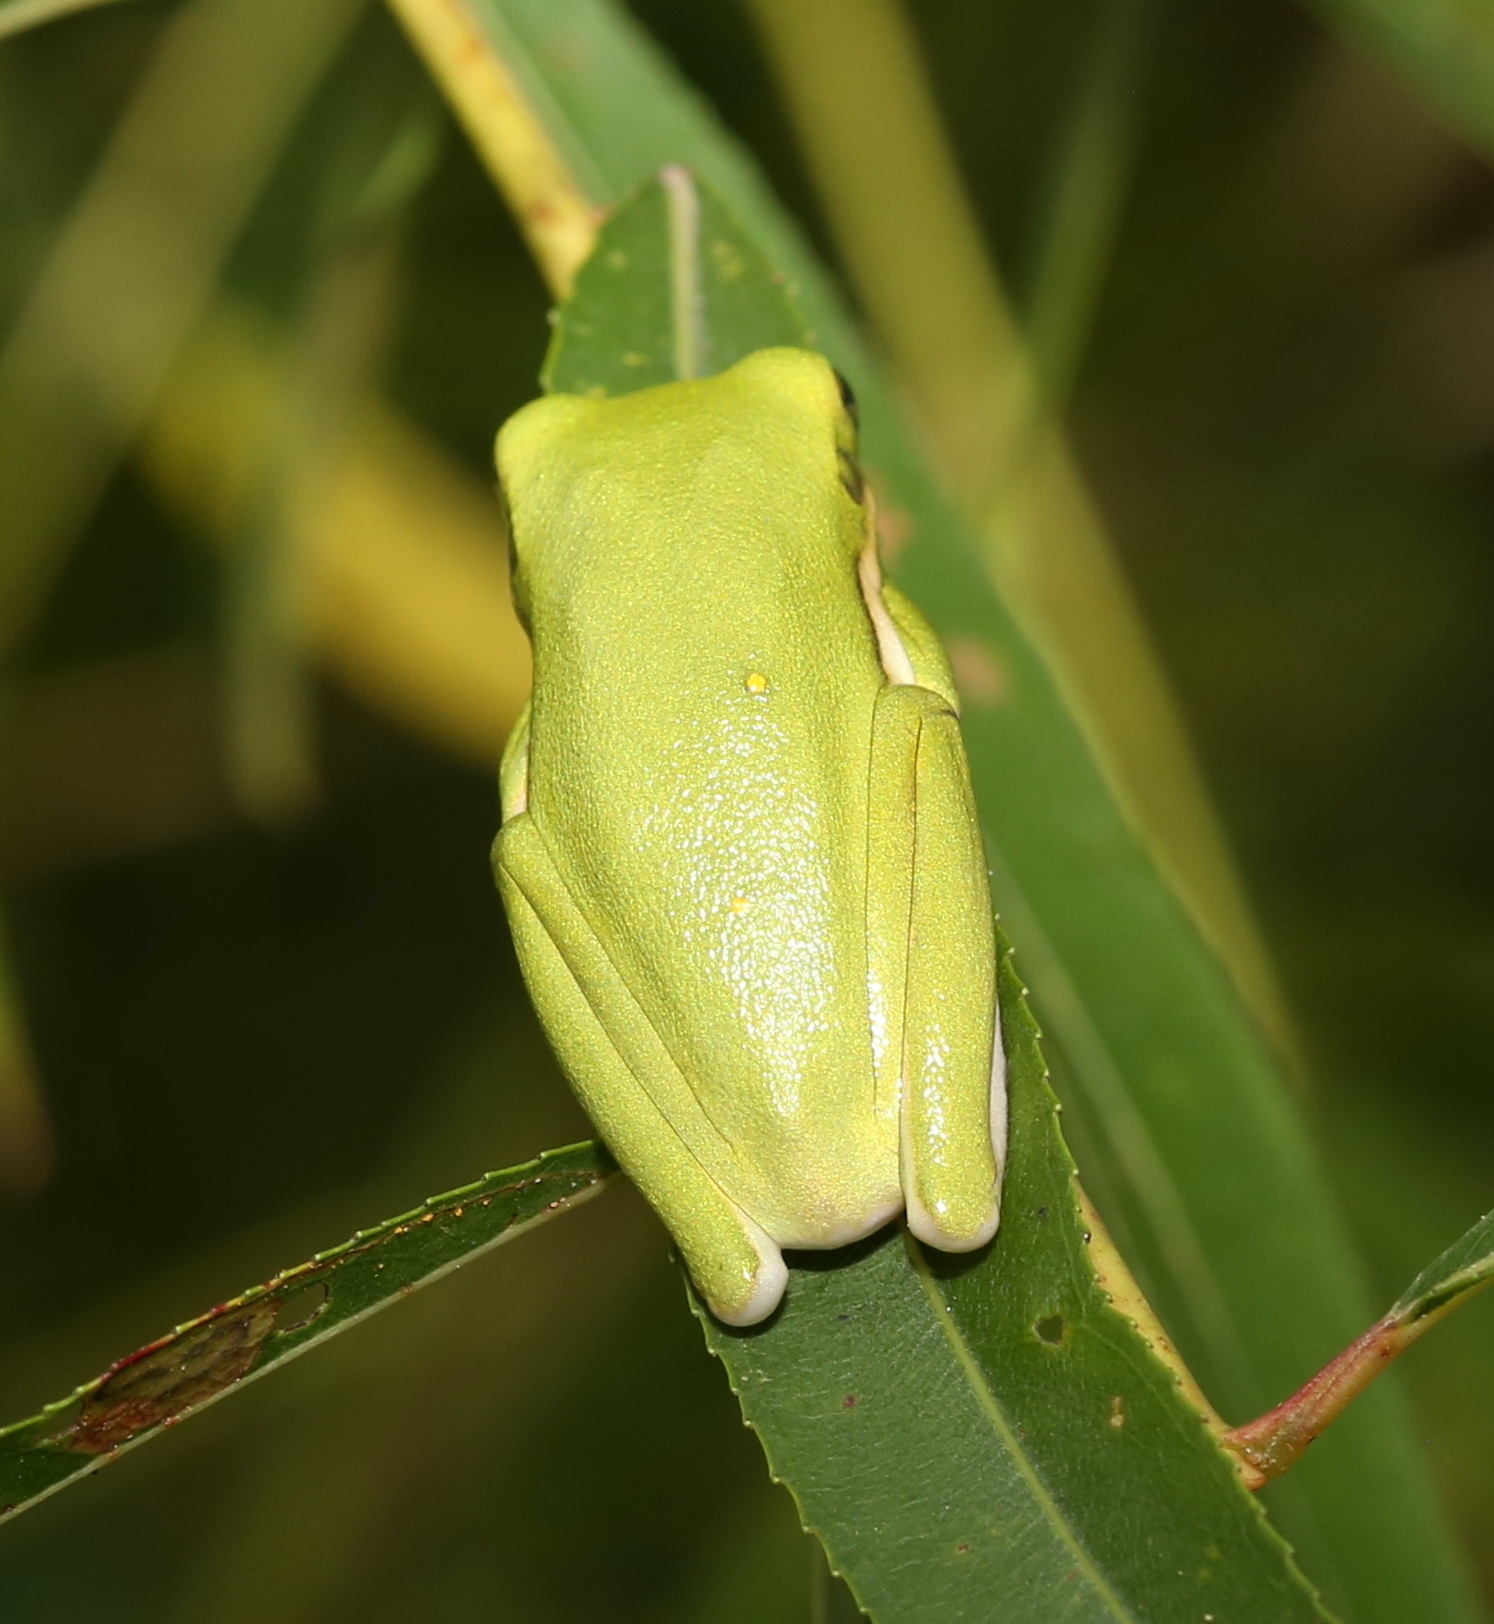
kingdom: Animalia
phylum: Chordata
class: Amphibia
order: Anura
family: Hylidae
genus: Dryophytes
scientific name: Dryophytes cinereus
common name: Green treefrog
